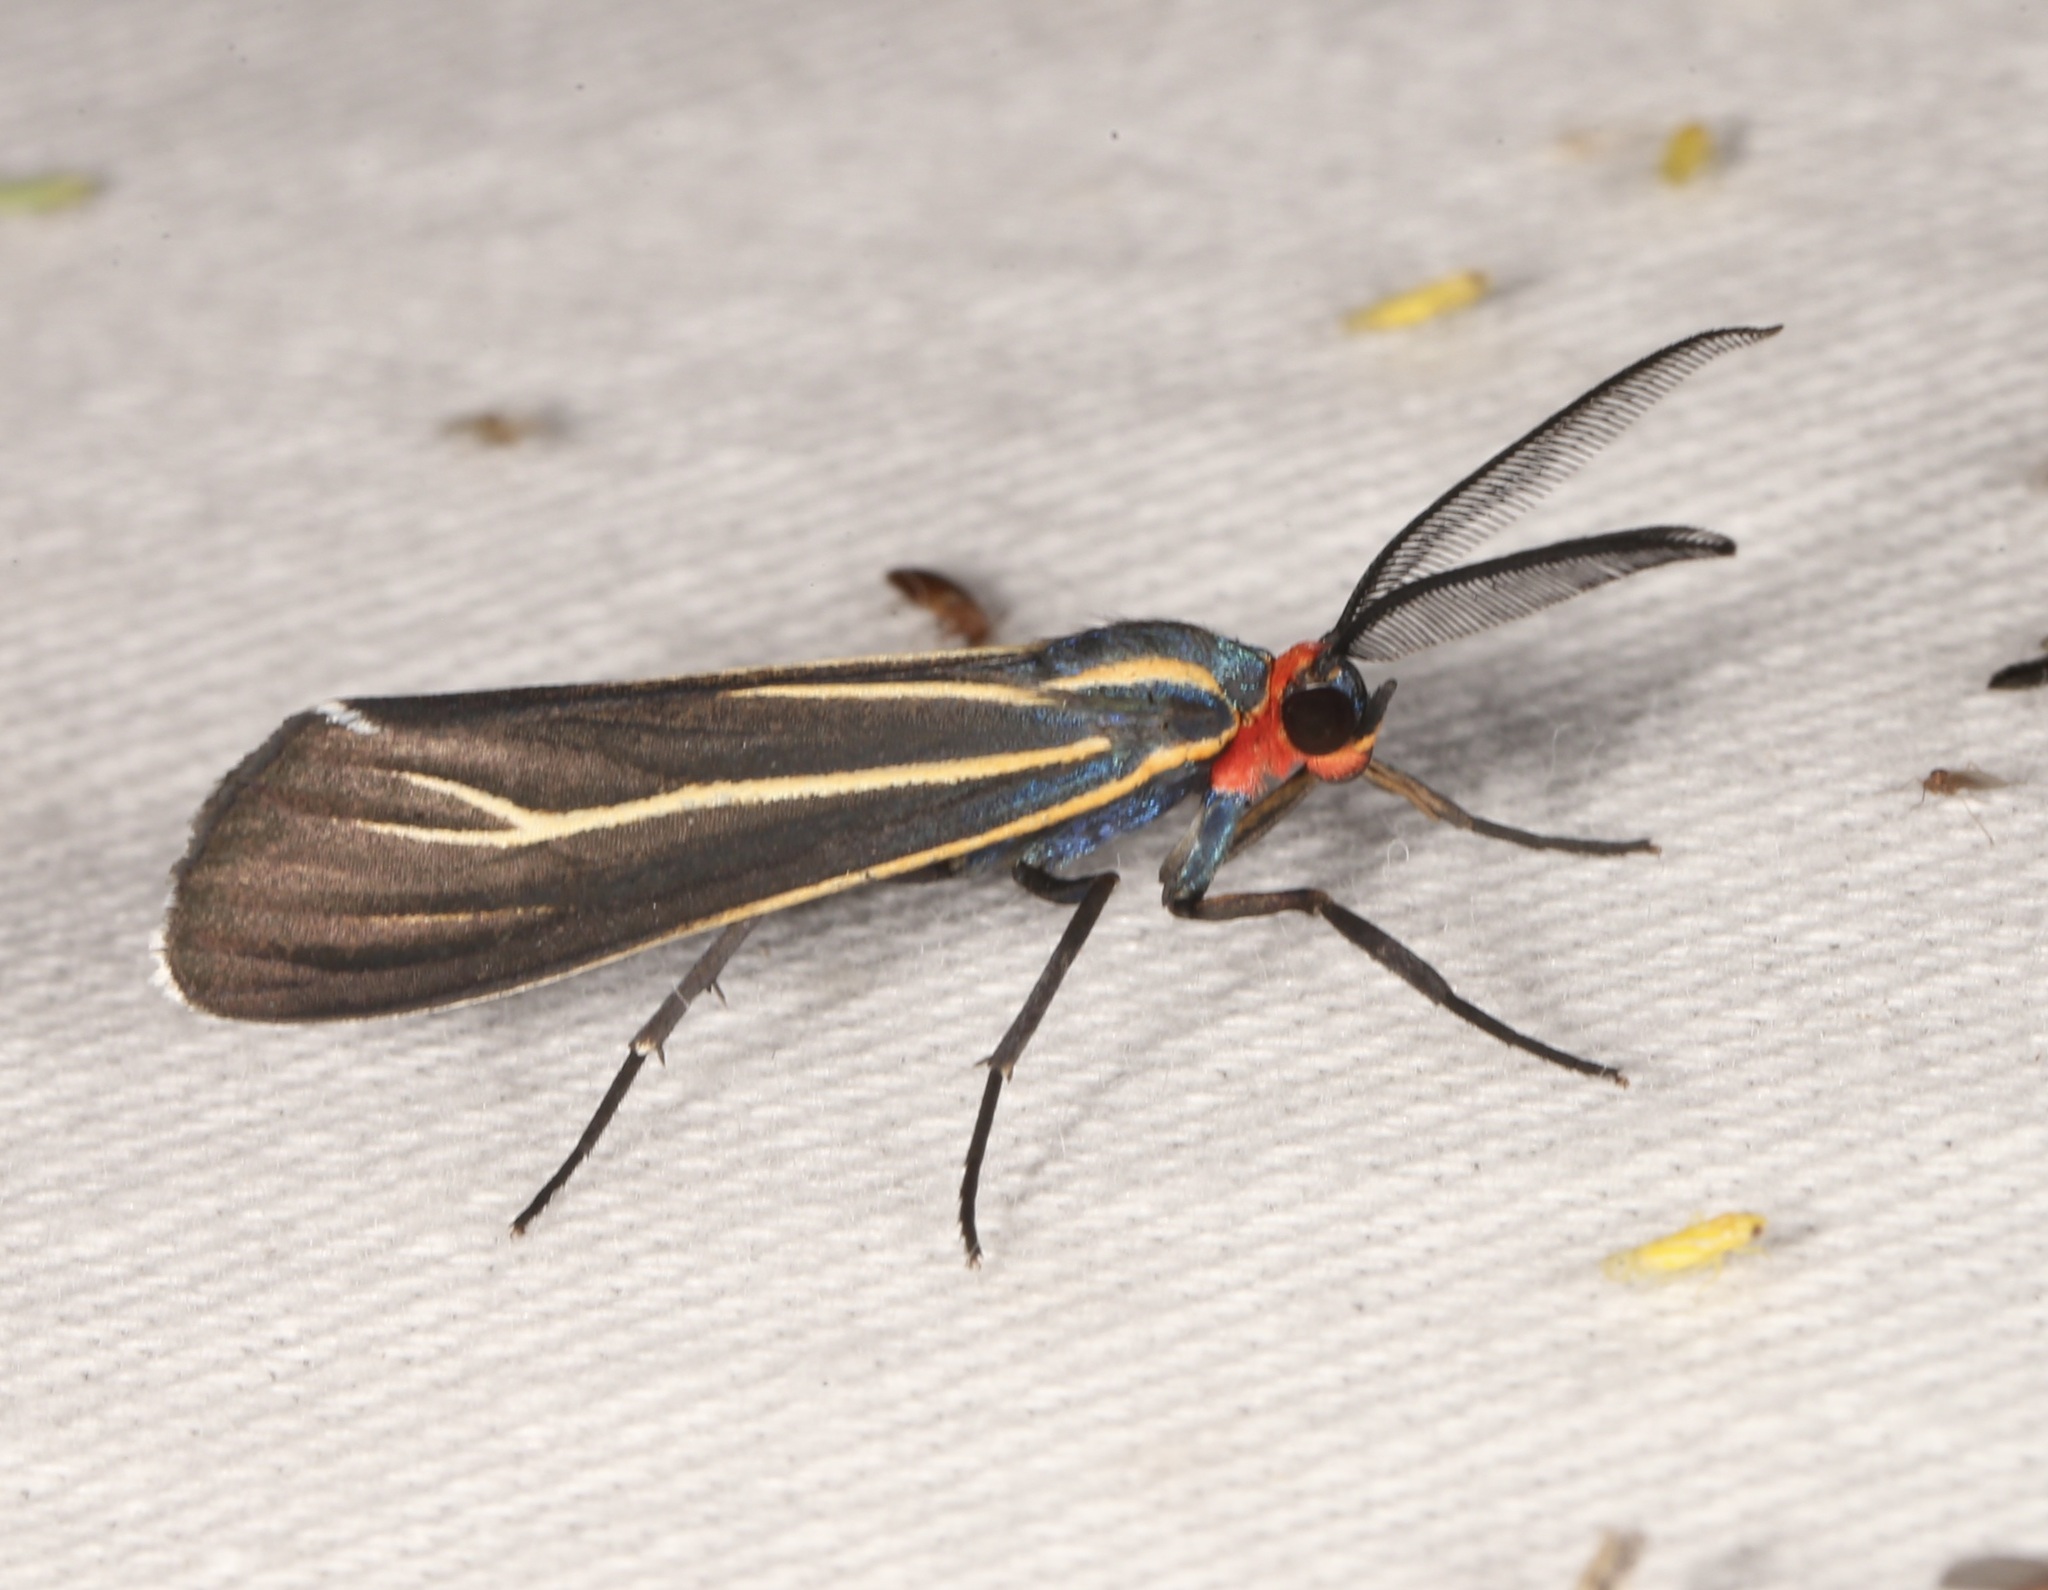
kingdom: Animalia
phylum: Arthropoda
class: Insecta
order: Lepidoptera
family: Erebidae
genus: Ctenucha
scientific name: Ctenucha venosa
